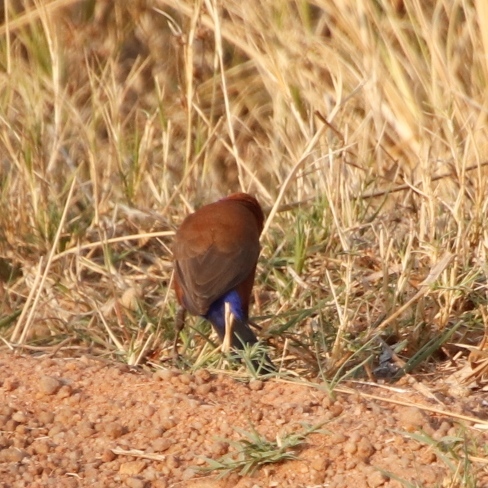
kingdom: Animalia
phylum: Chordata
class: Aves
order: Passeriformes
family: Estrildidae
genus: Uraeginthus
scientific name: Uraeginthus granatinus
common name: Violet-eared waxbill
